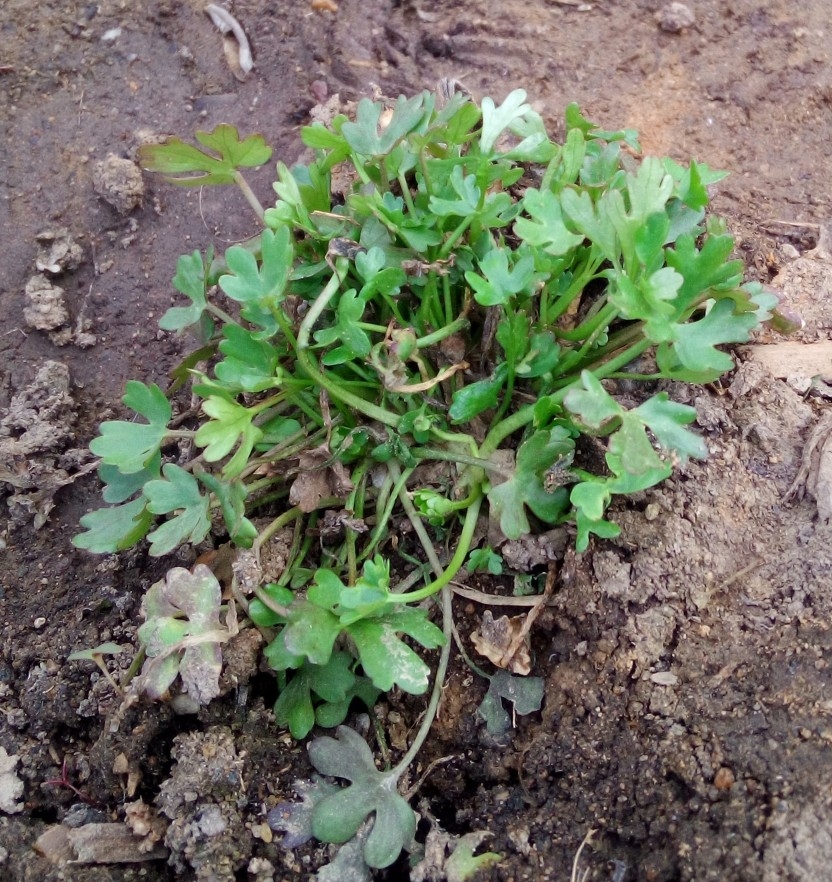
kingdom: Plantae
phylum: Tracheophyta
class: Magnoliopsida
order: Ranunculales
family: Ranunculaceae
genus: Ranunculus
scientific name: Ranunculus sceleratus
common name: Celery-leaved buttercup
